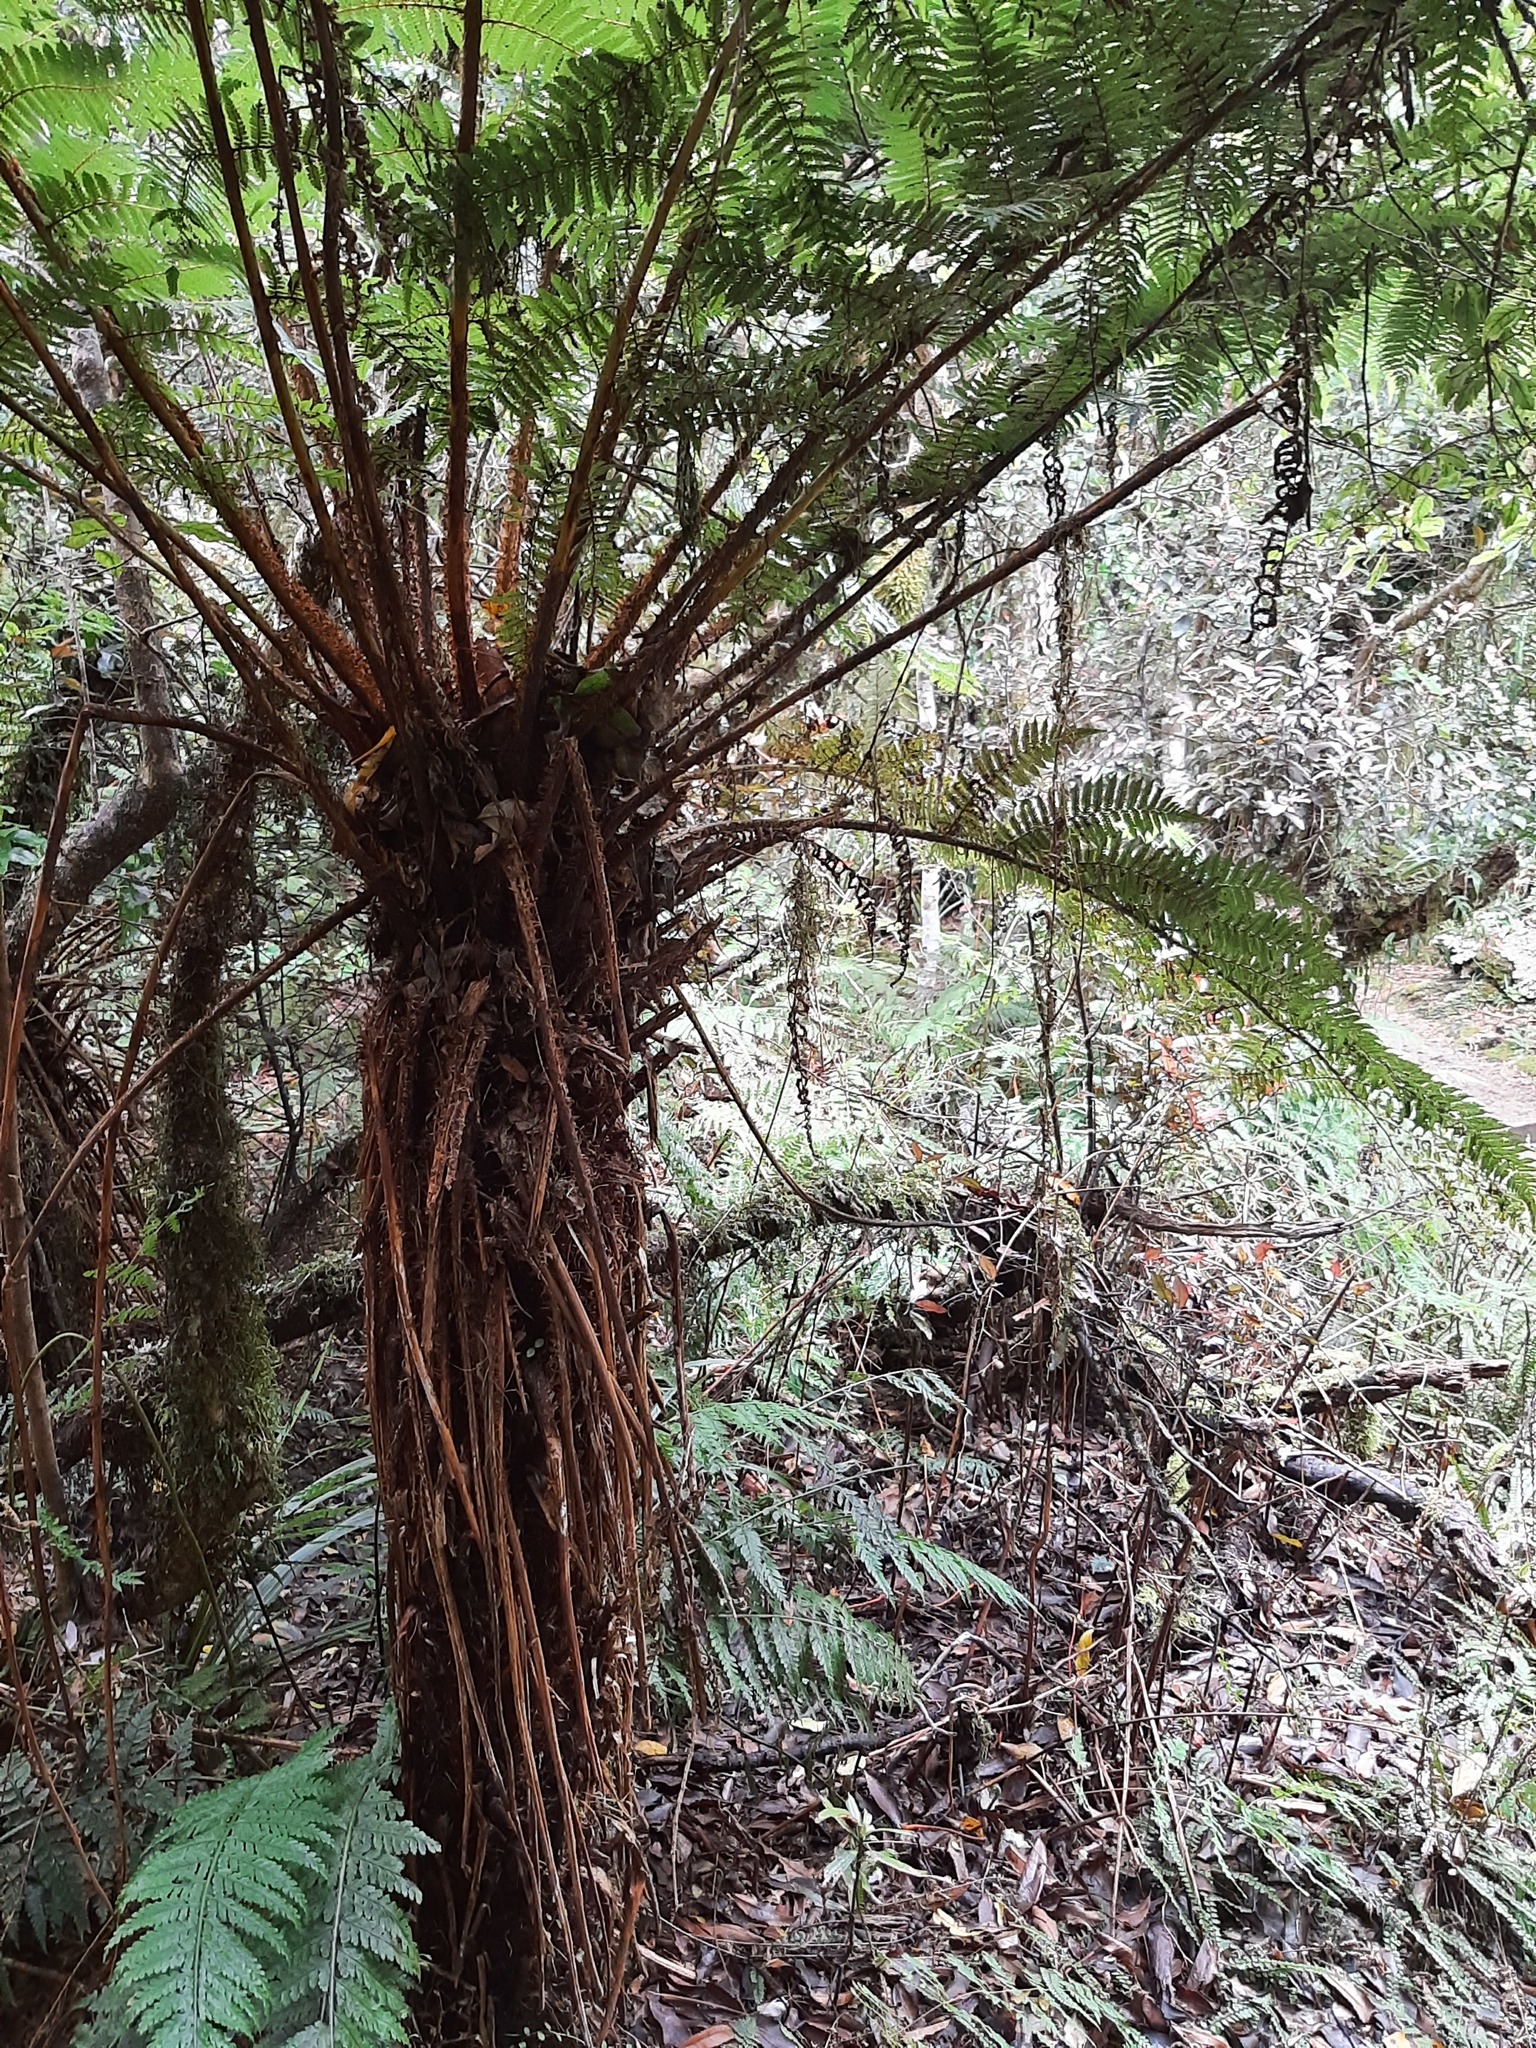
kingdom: Plantae
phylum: Tracheophyta
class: Polypodiopsida
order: Cyatheales
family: Cyatheaceae
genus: Alsophila
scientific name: Alsophila smithii
